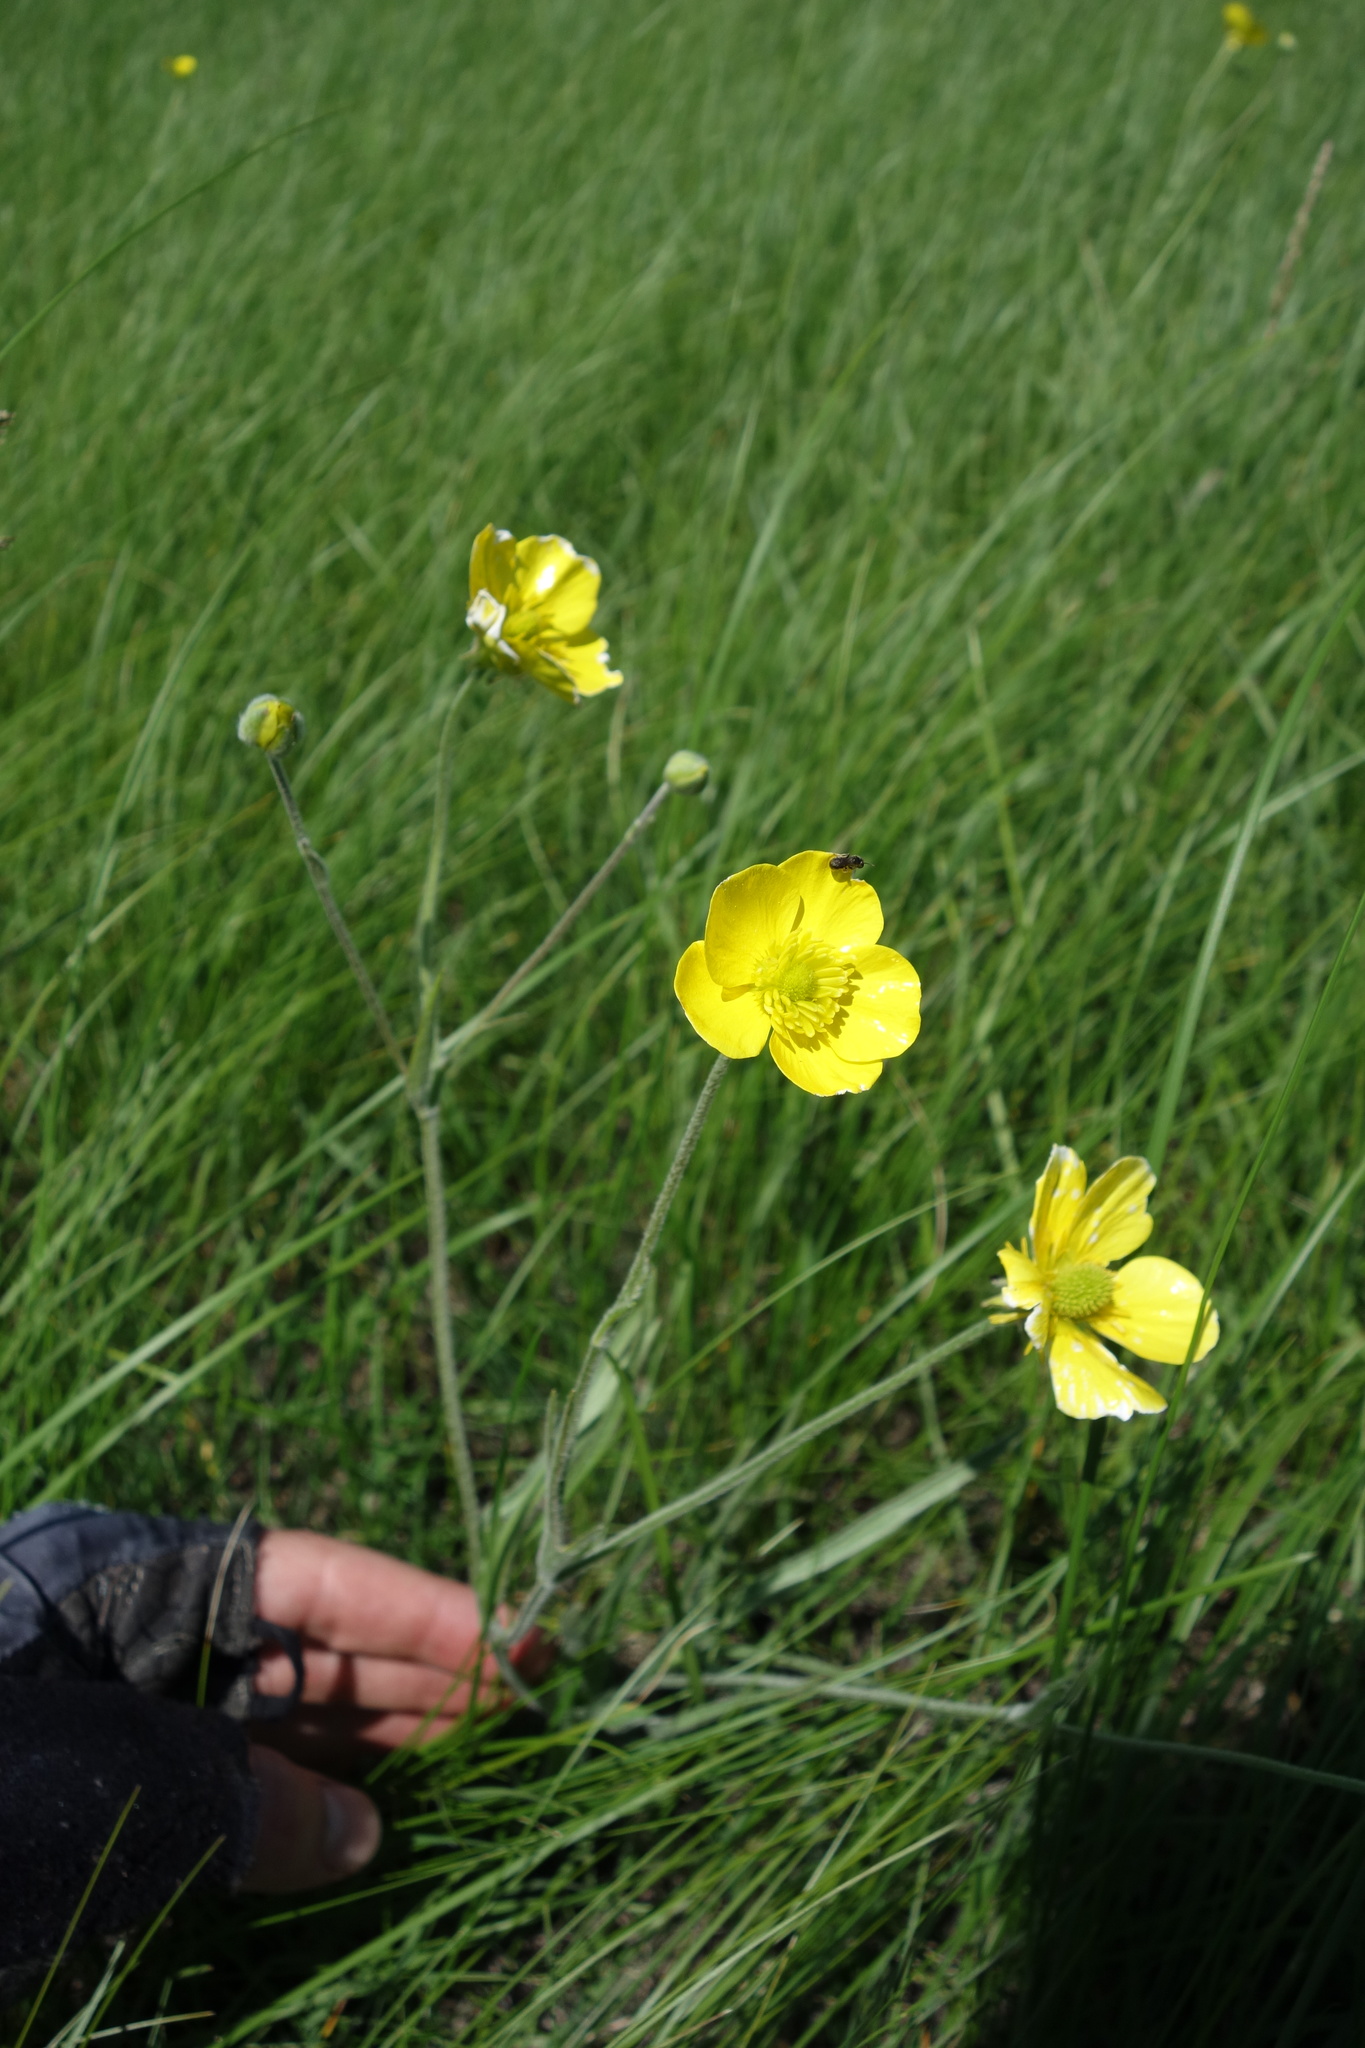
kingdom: Plantae
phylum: Tracheophyta
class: Magnoliopsida
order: Ranunculales
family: Ranunculaceae
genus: Ranunculus
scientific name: Ranunculus illyricus
